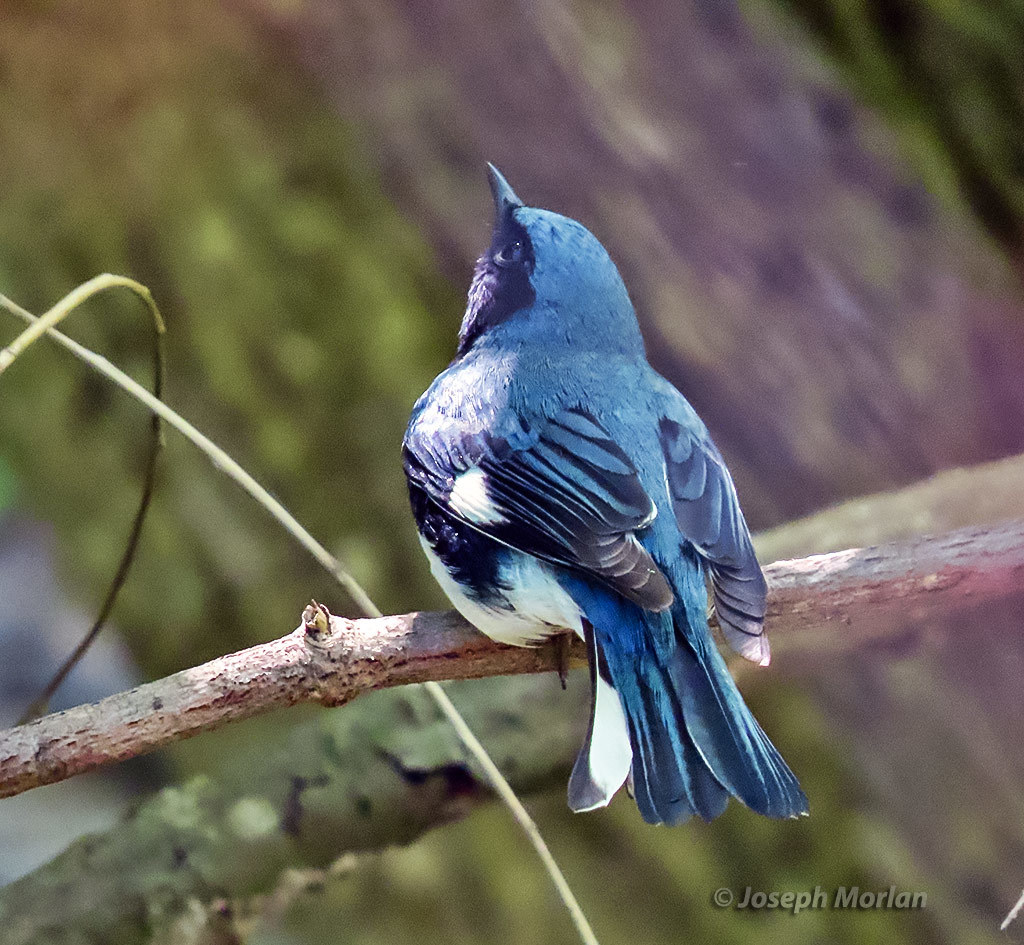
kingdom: Animalia
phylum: Chordata
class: Aves
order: Passeriformes
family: Parulidae
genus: Setophaga
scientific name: Setophaga caerulescens
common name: Black-throated blue warbler
